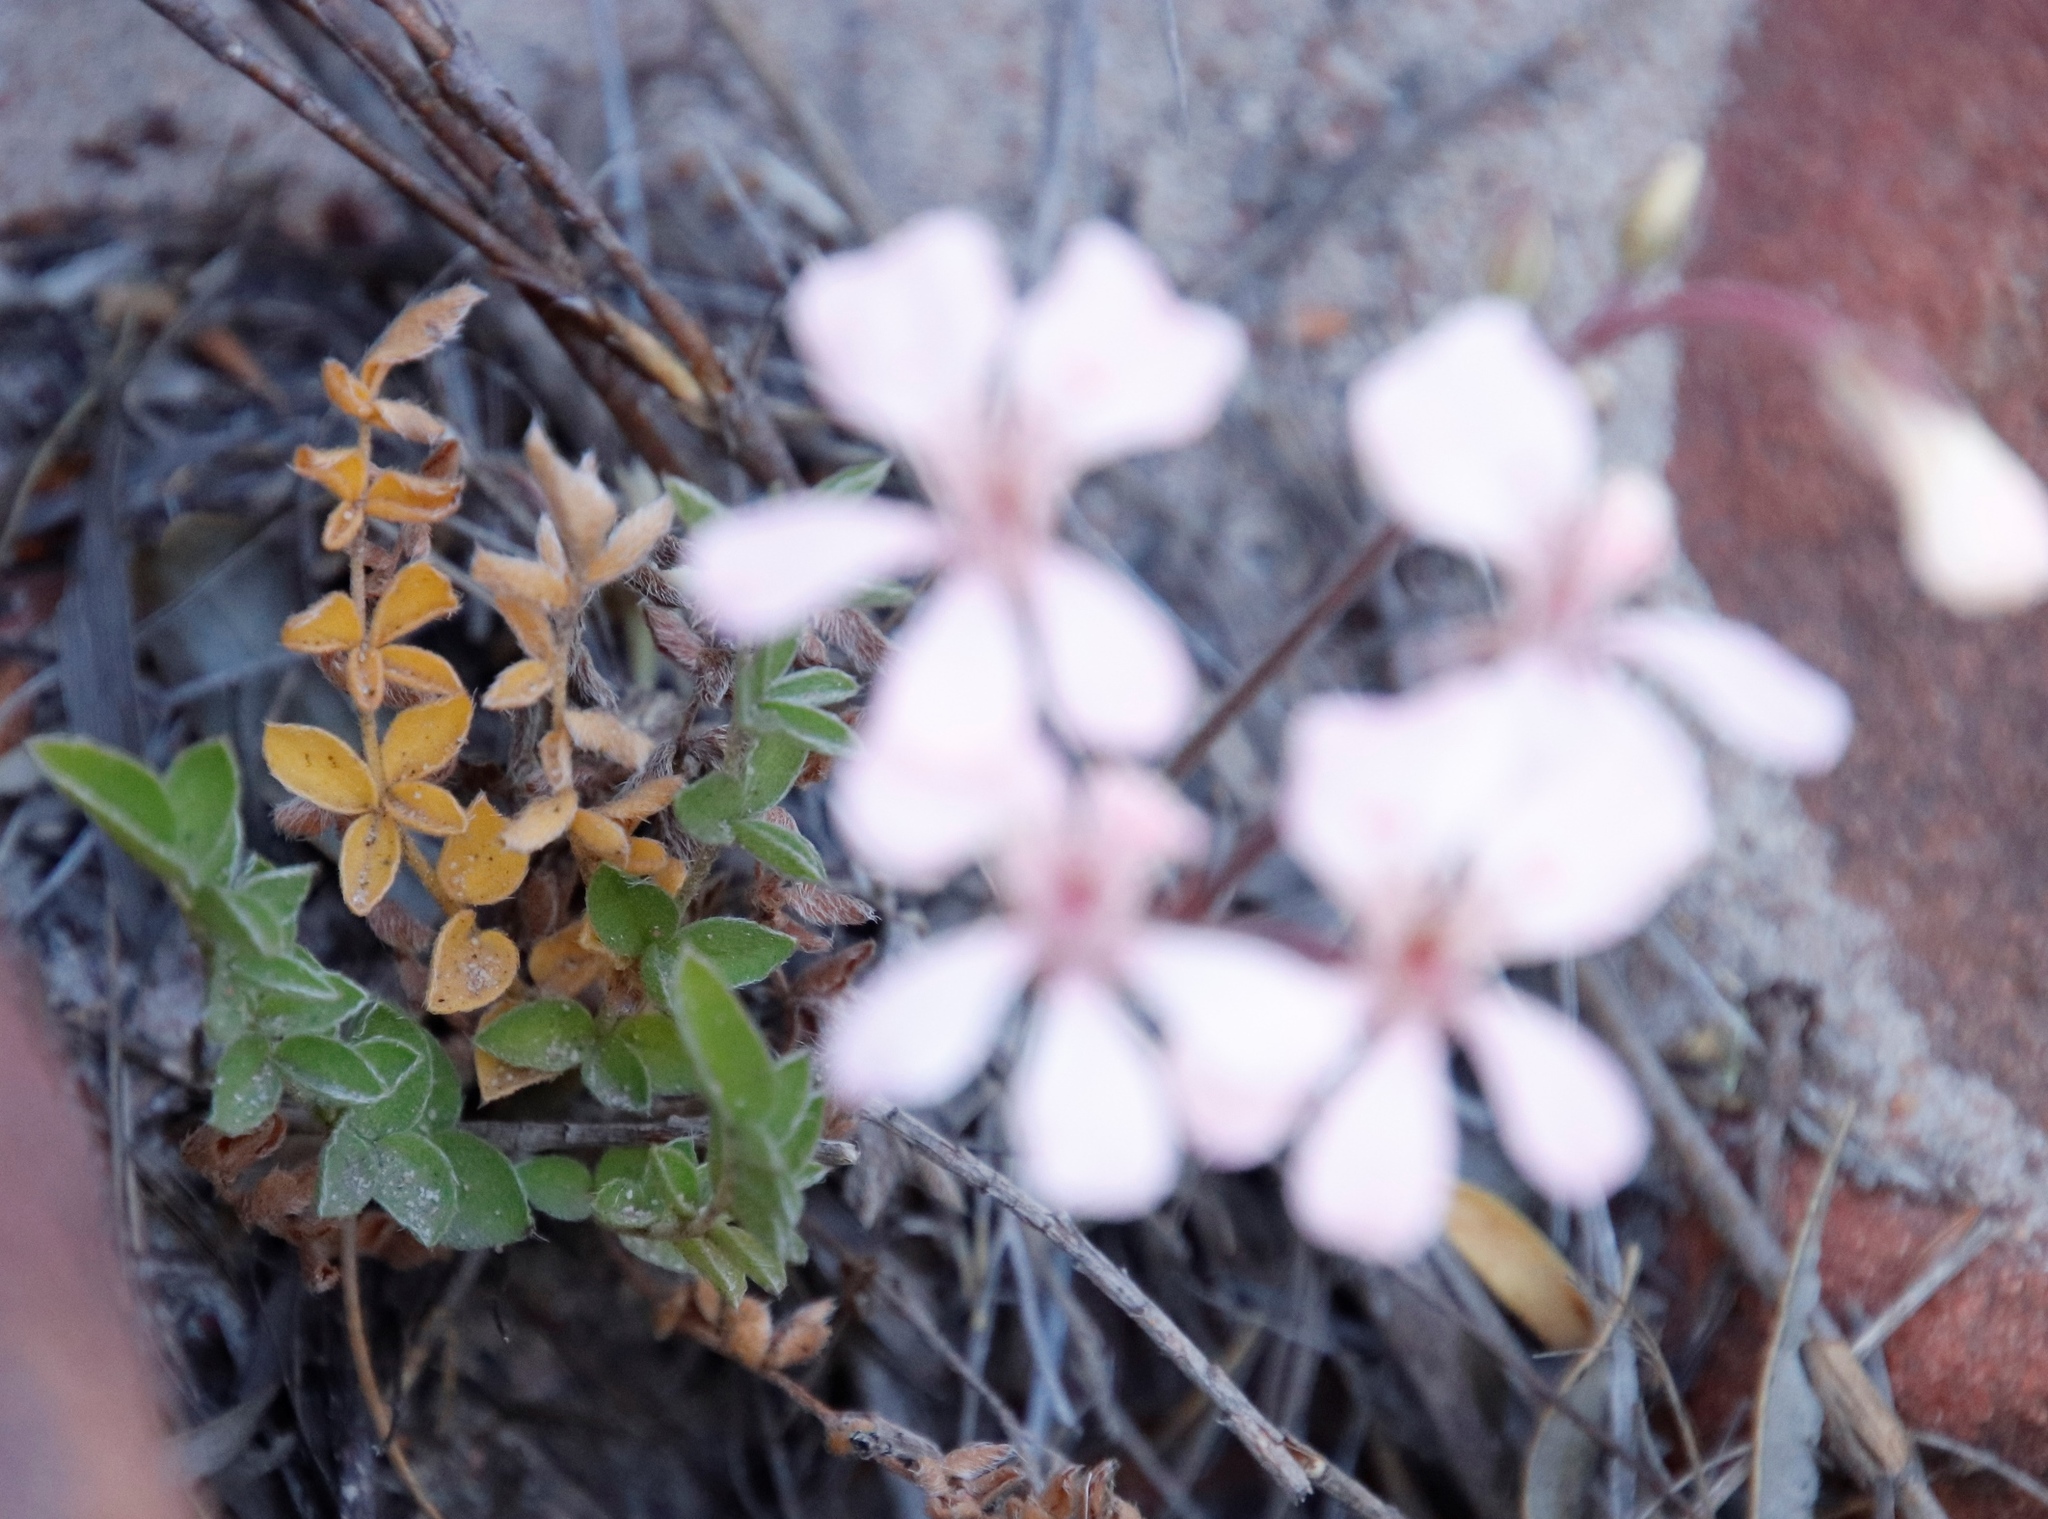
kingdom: Plantae
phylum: Tracheophyta
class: Magnoliopsida
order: Geraniales
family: Geraniaceae
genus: Pelargonium
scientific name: Pelargonium pinnatum
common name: Pinnated pelargonium
